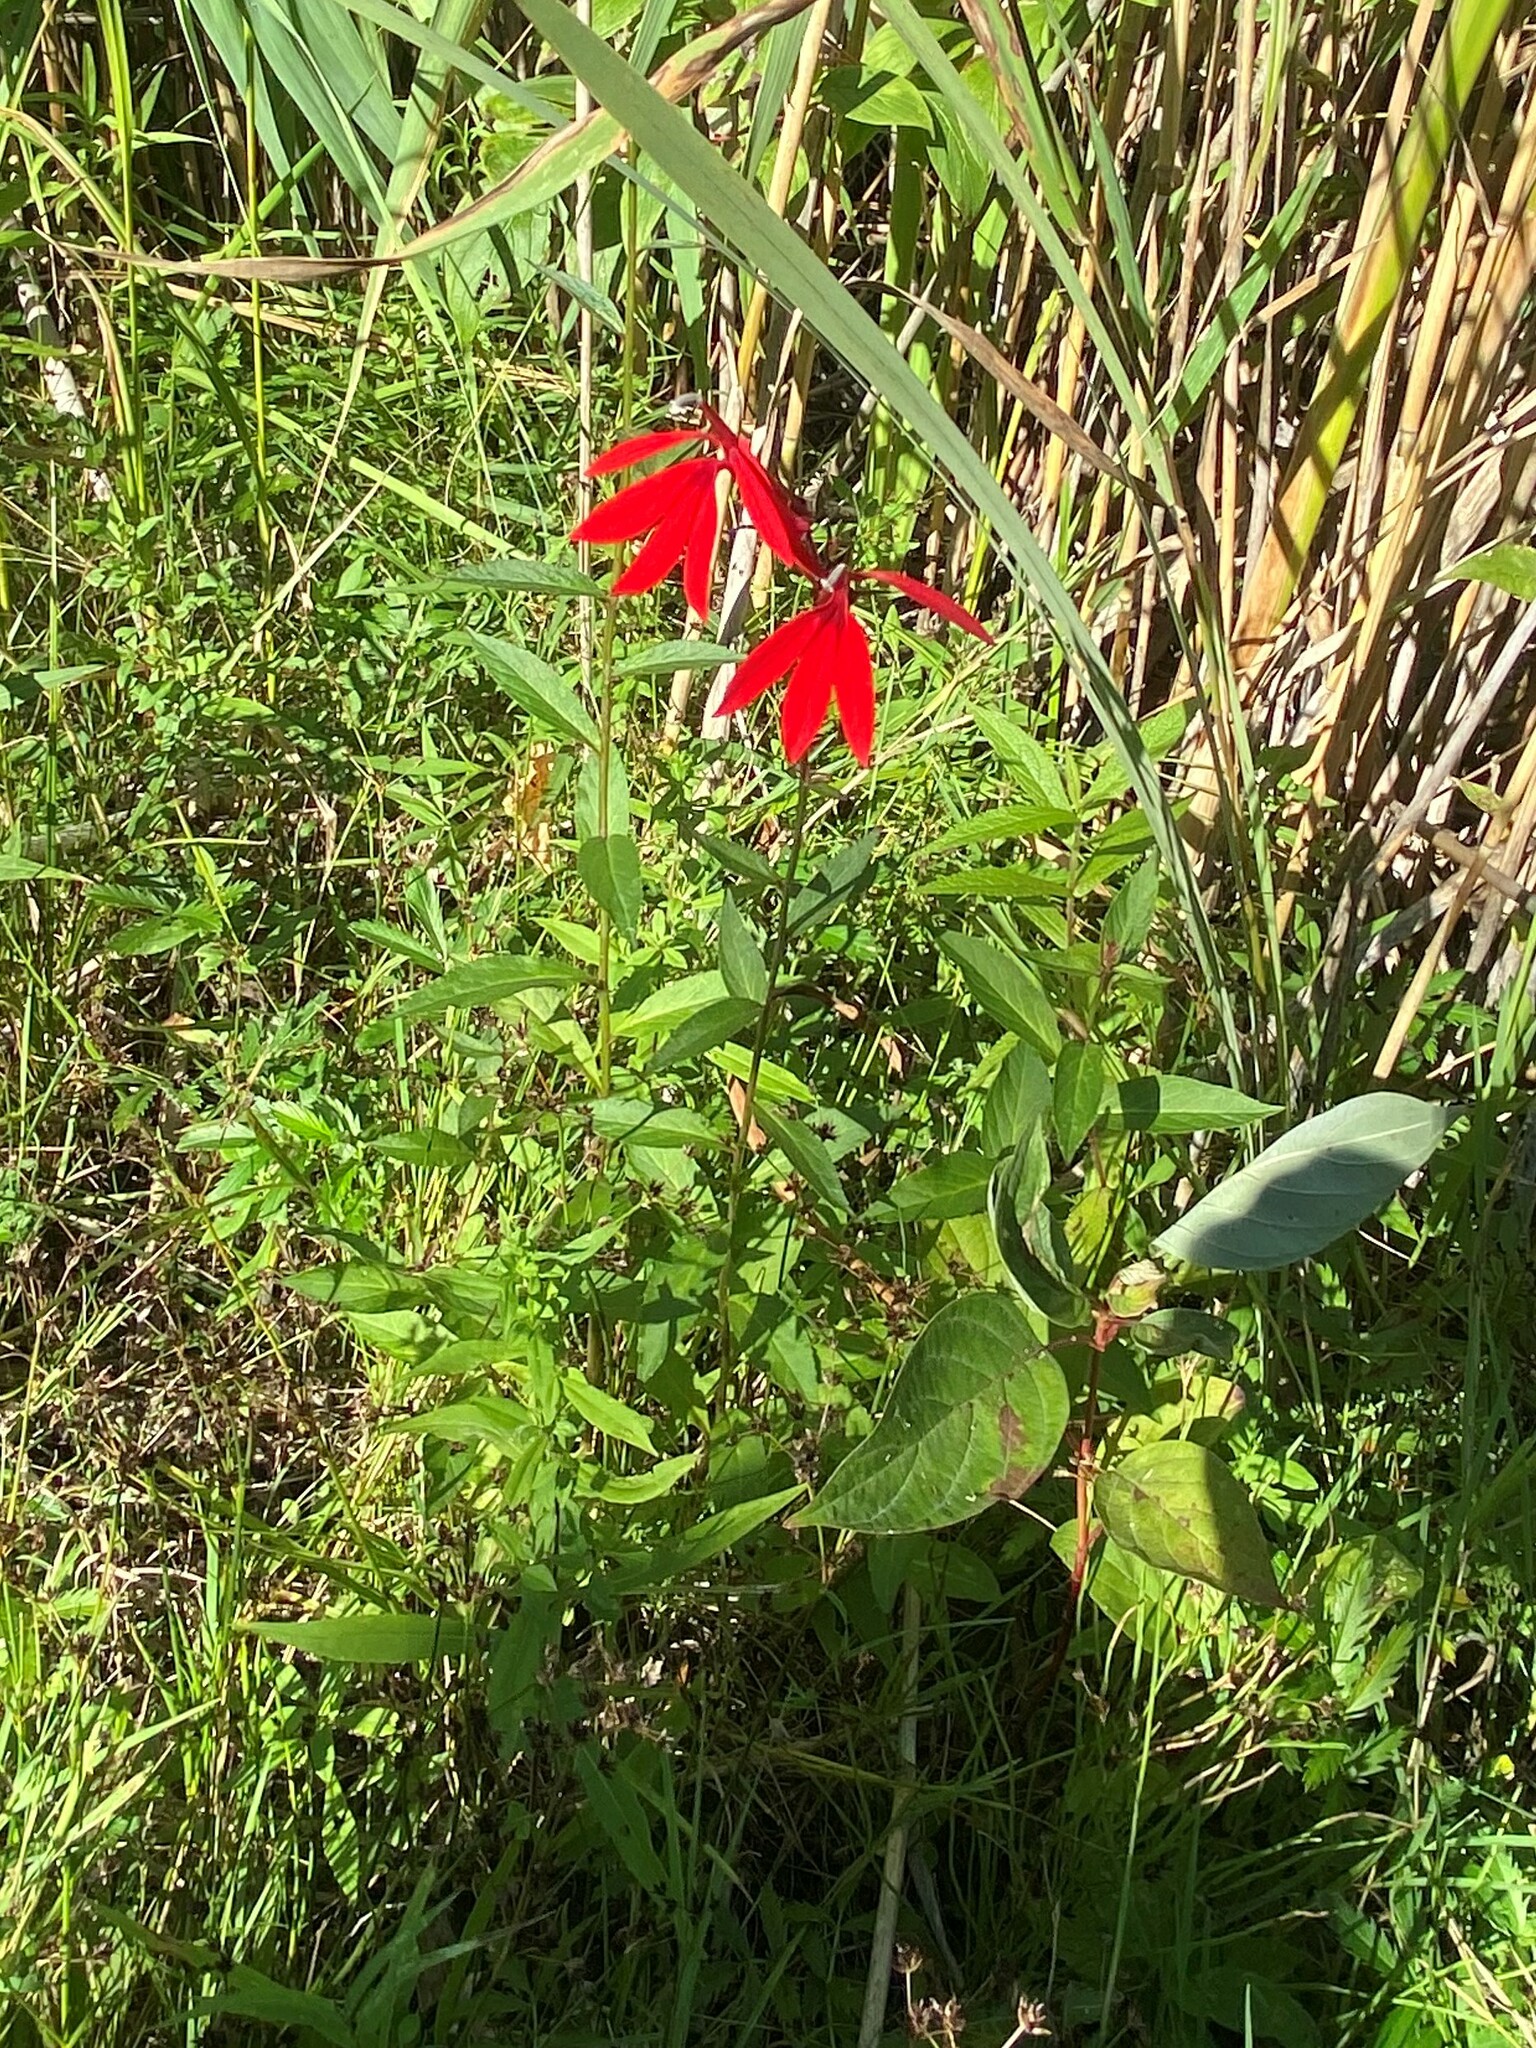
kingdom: Plantae
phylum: Tracheophyta
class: Magnoliopsida
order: Asterales
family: Campanulaceae
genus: Lobelia
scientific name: Lobelia cardinalis
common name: Cardinal flower
